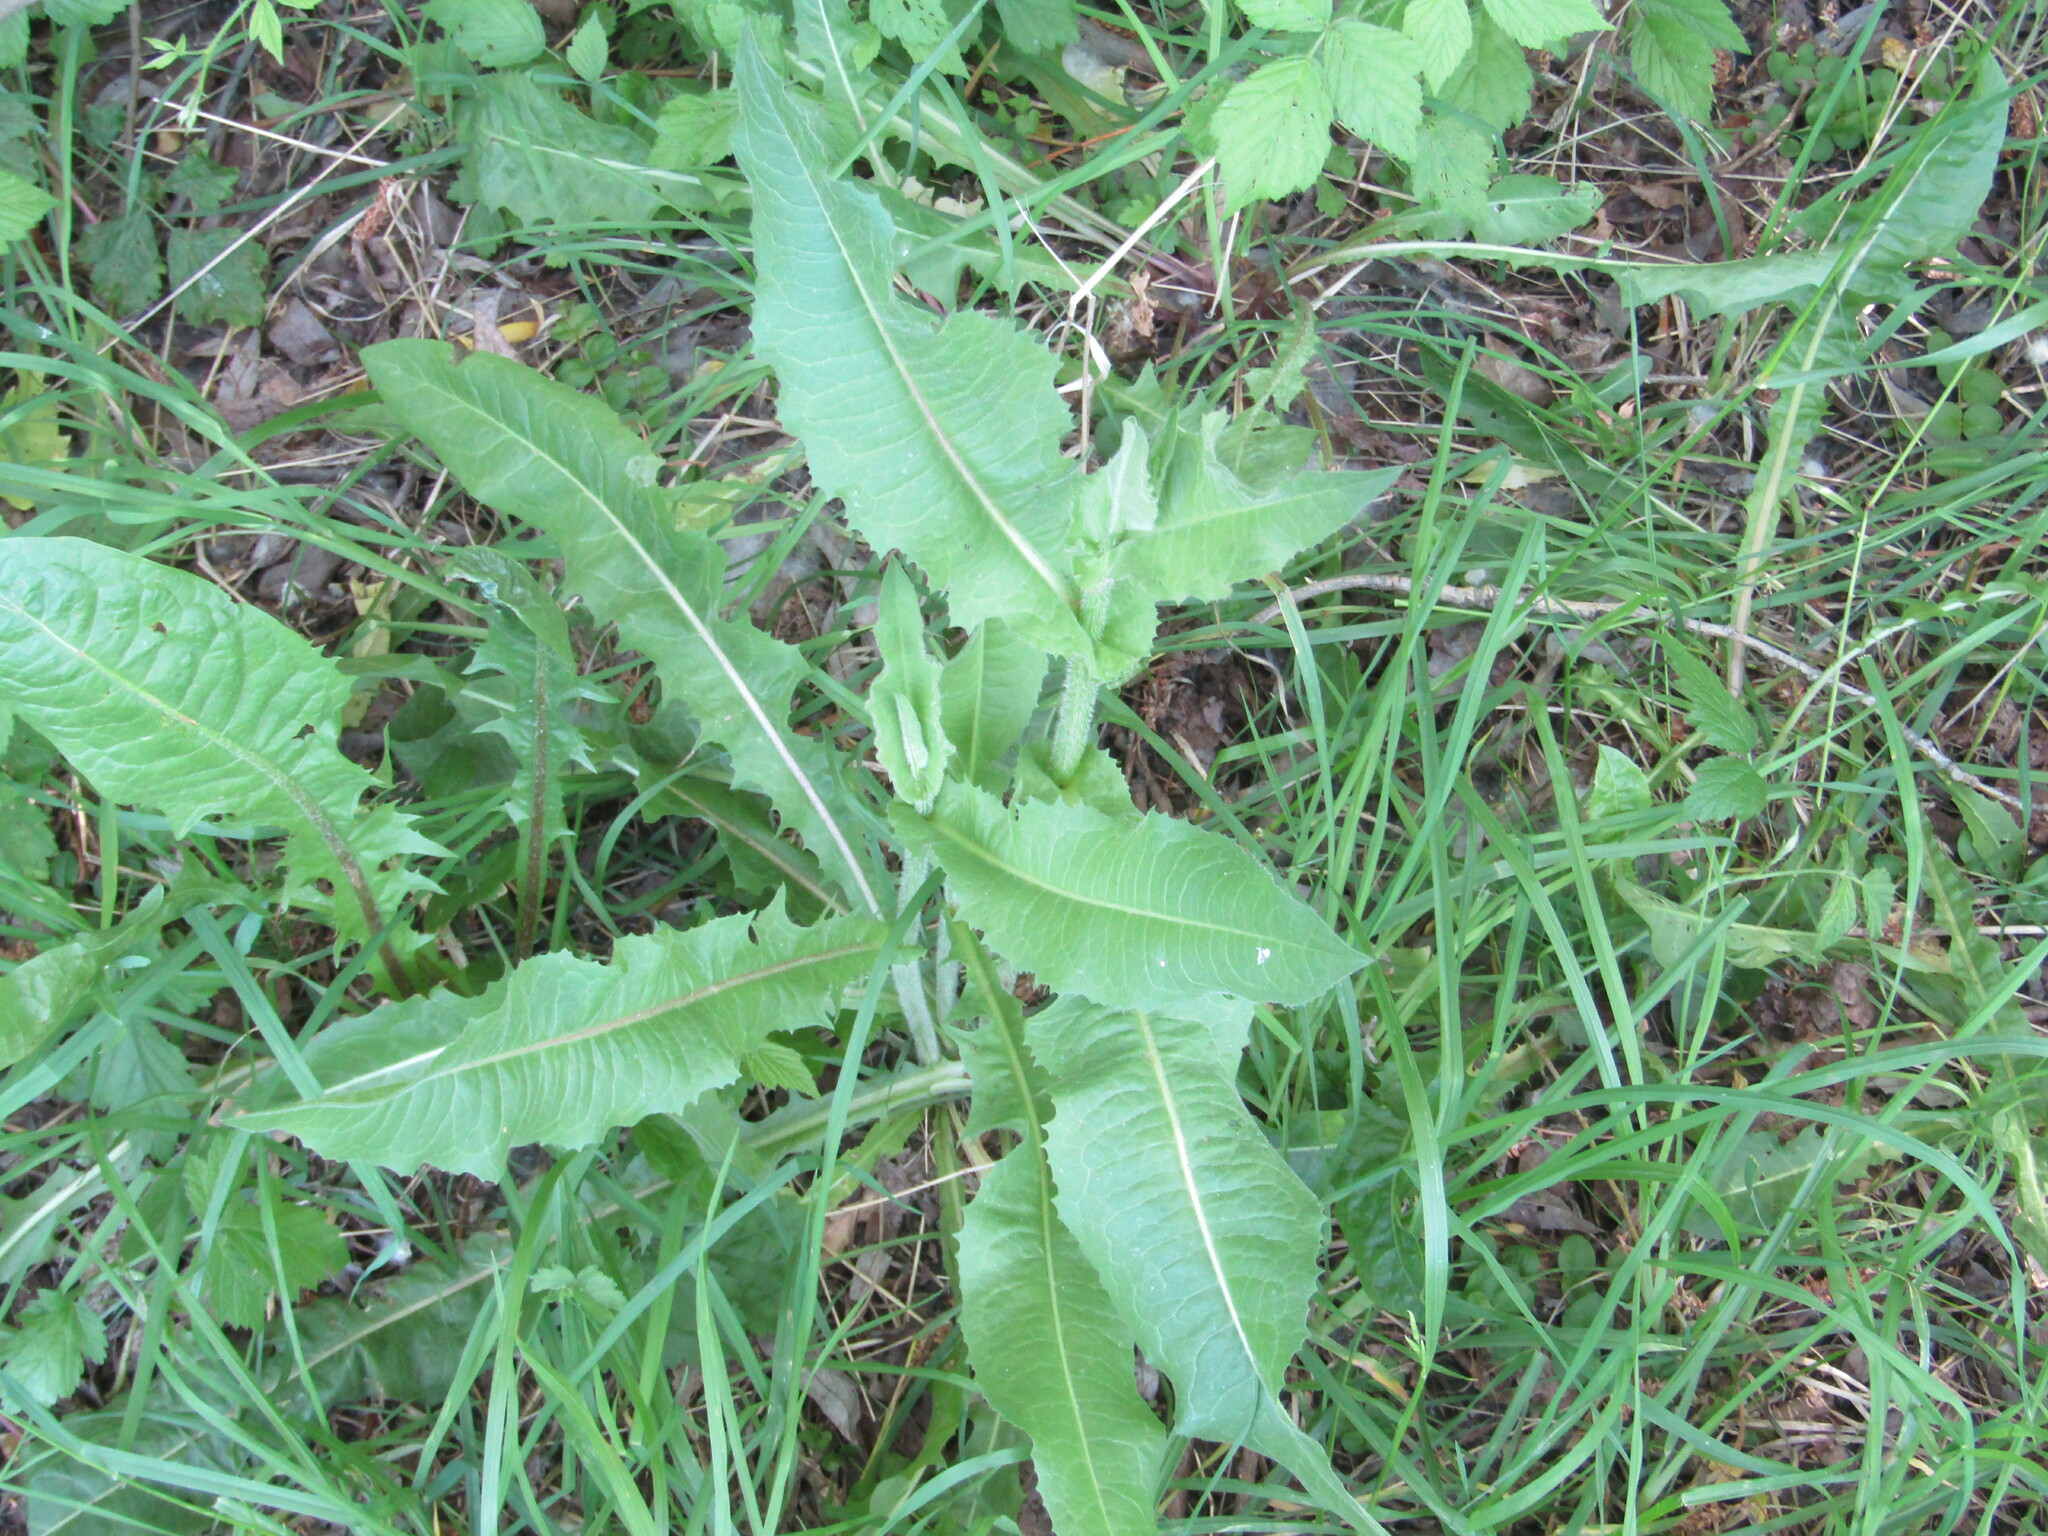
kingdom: Plantae
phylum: Tracheophyta
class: Magnoliopsida
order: Asterales
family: Asteraceae
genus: Cichorium
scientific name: Cichorium intybus
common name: Chicory
